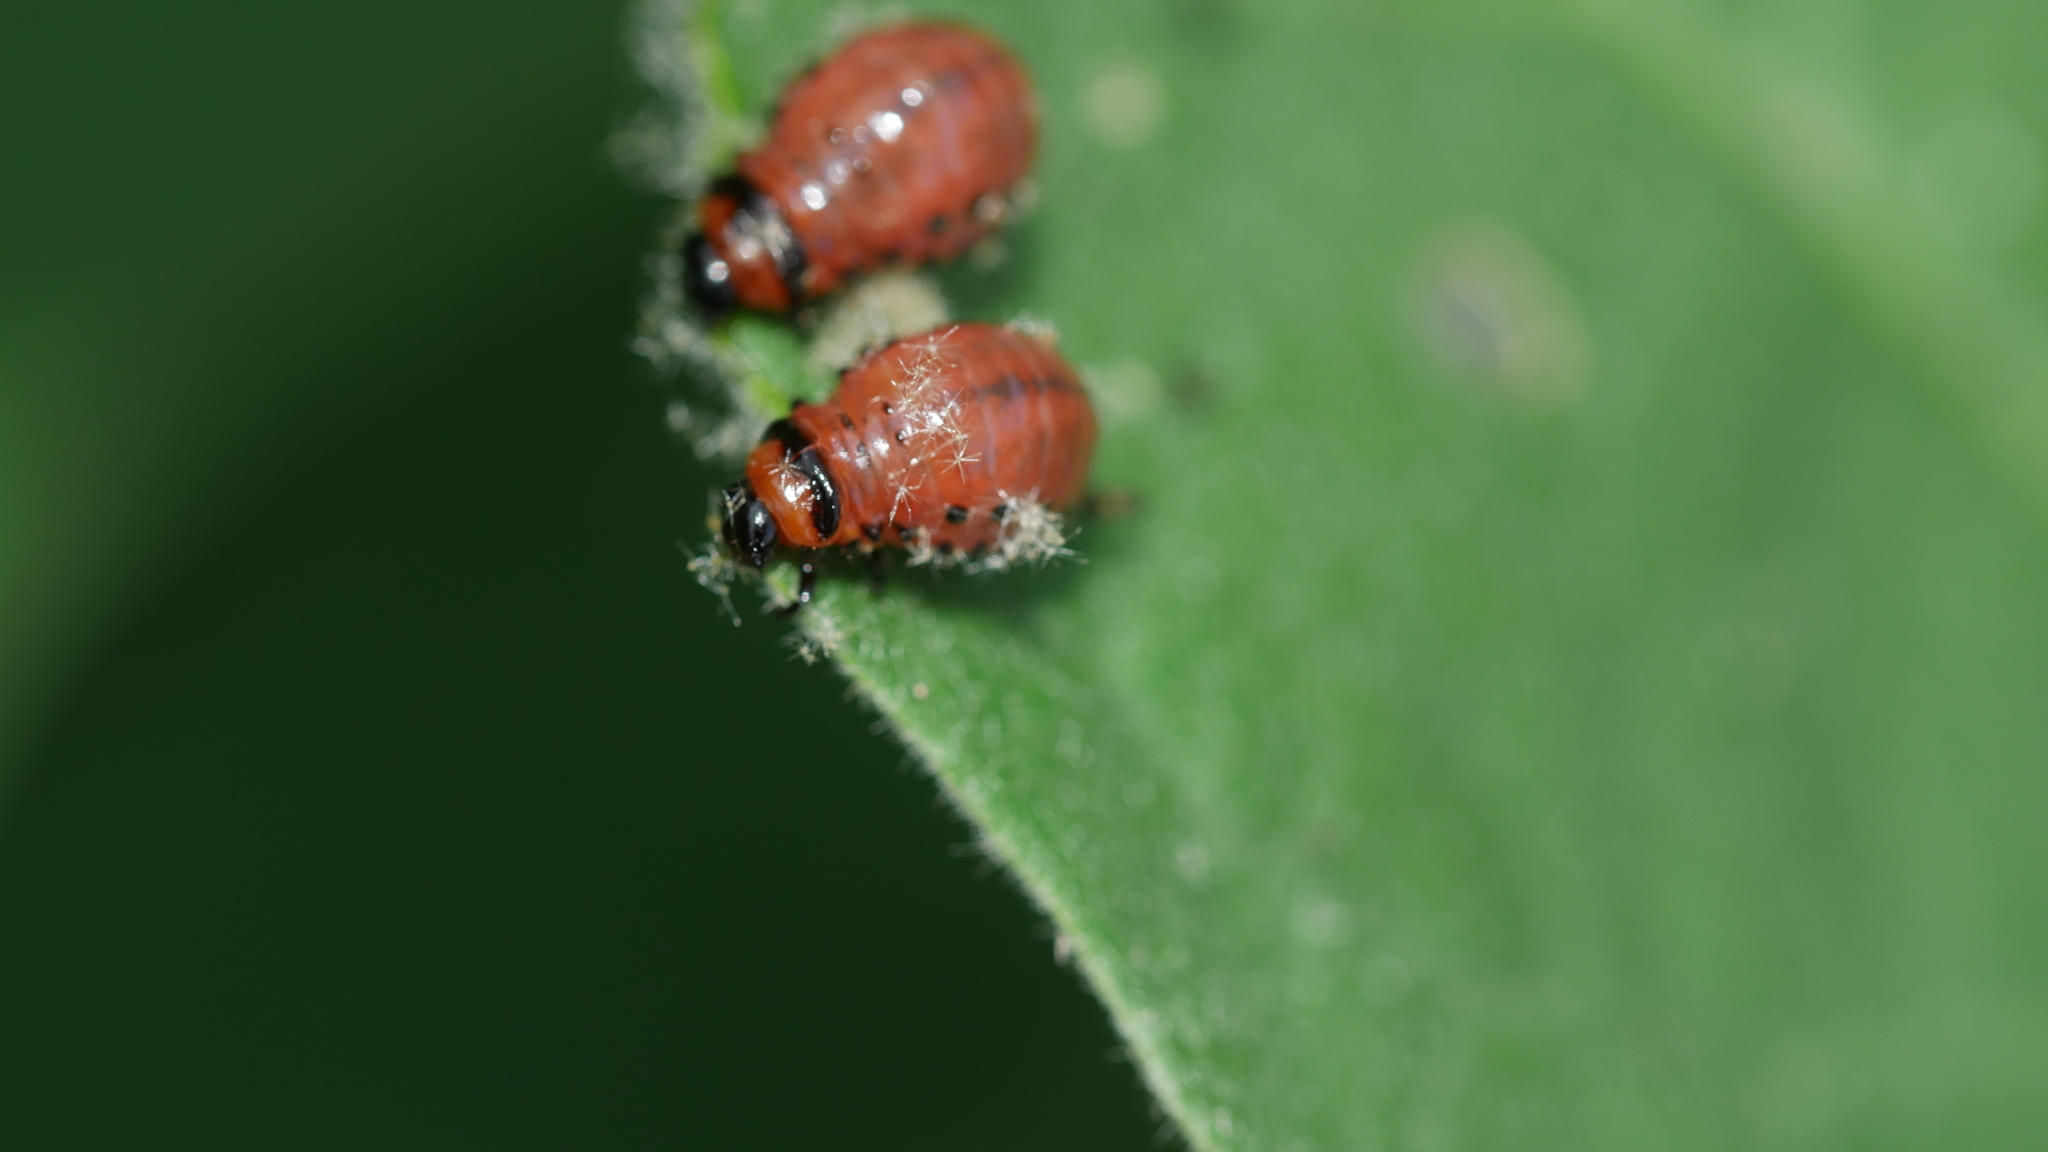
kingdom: Animalia
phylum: Arthropoda
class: Insecta
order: Coleoptera
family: Chrysomelidae
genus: Leptinotarsa
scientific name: Leptinotarsa decemlineata
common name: Colorado potato beetle
